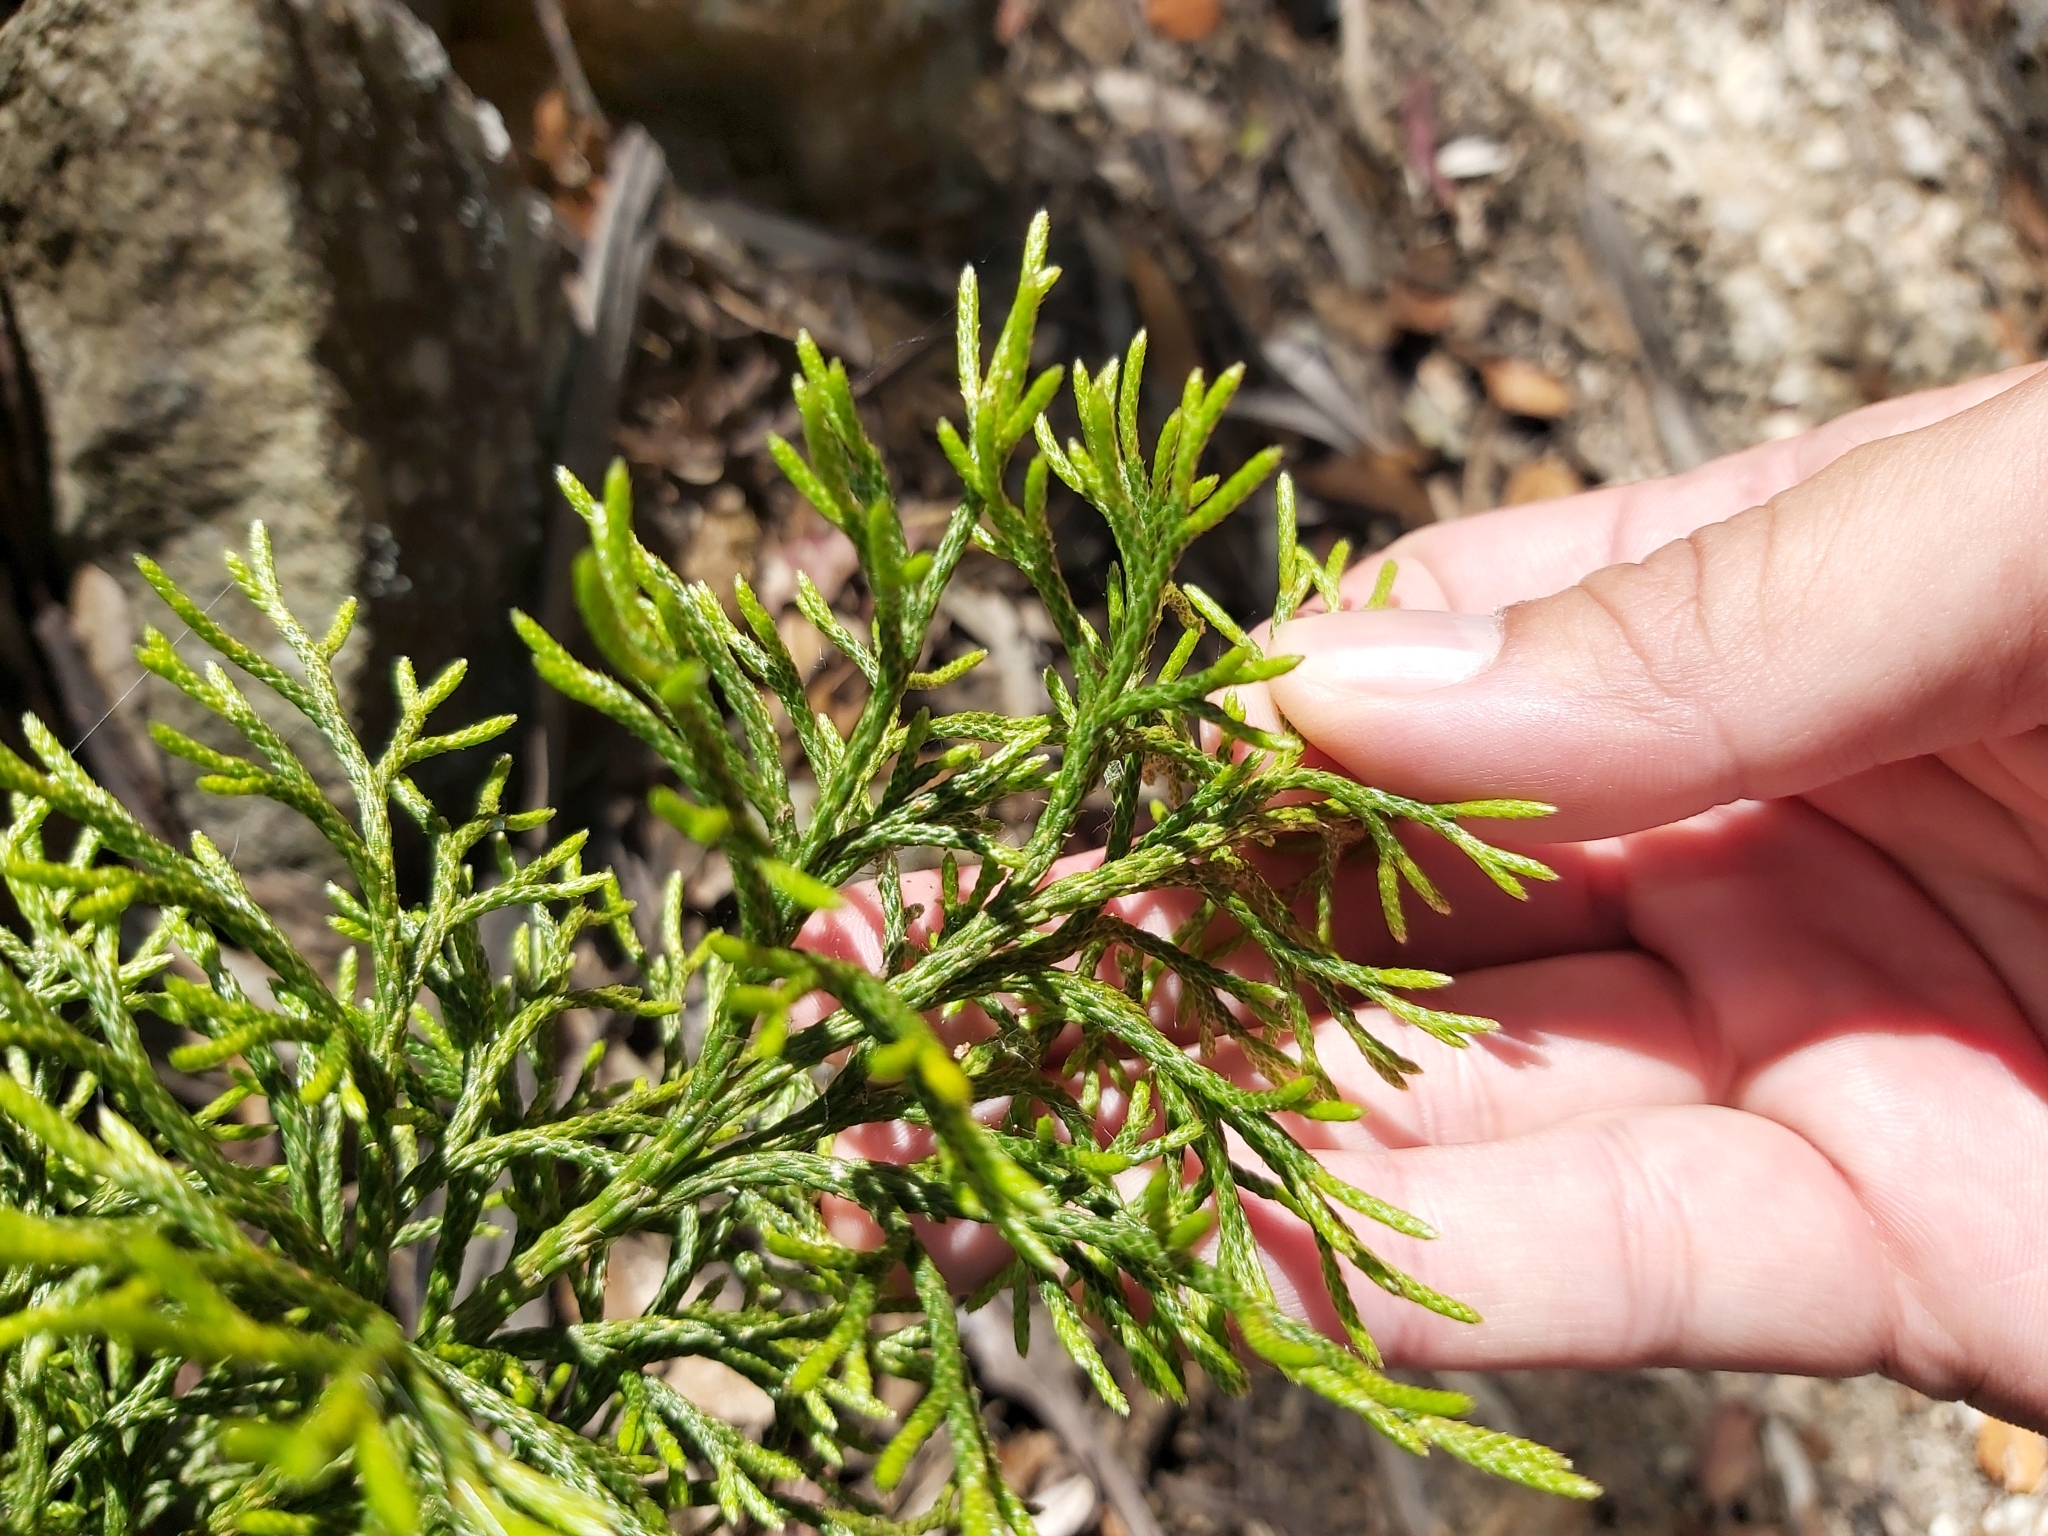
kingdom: Plantae
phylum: Tracheophyta
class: Lycopodiopsida
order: Lycopodiales
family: Lycopodiaceae
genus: Pseudolycopodium
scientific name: Pseudolycopodium densum
